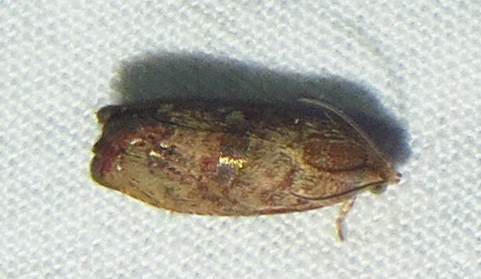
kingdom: Animalia
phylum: Arthropoda
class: Insecta
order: Lepidoptera
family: Tortricidae
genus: Cydia
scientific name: Cydia latiferreana
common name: Filbertworm moth
